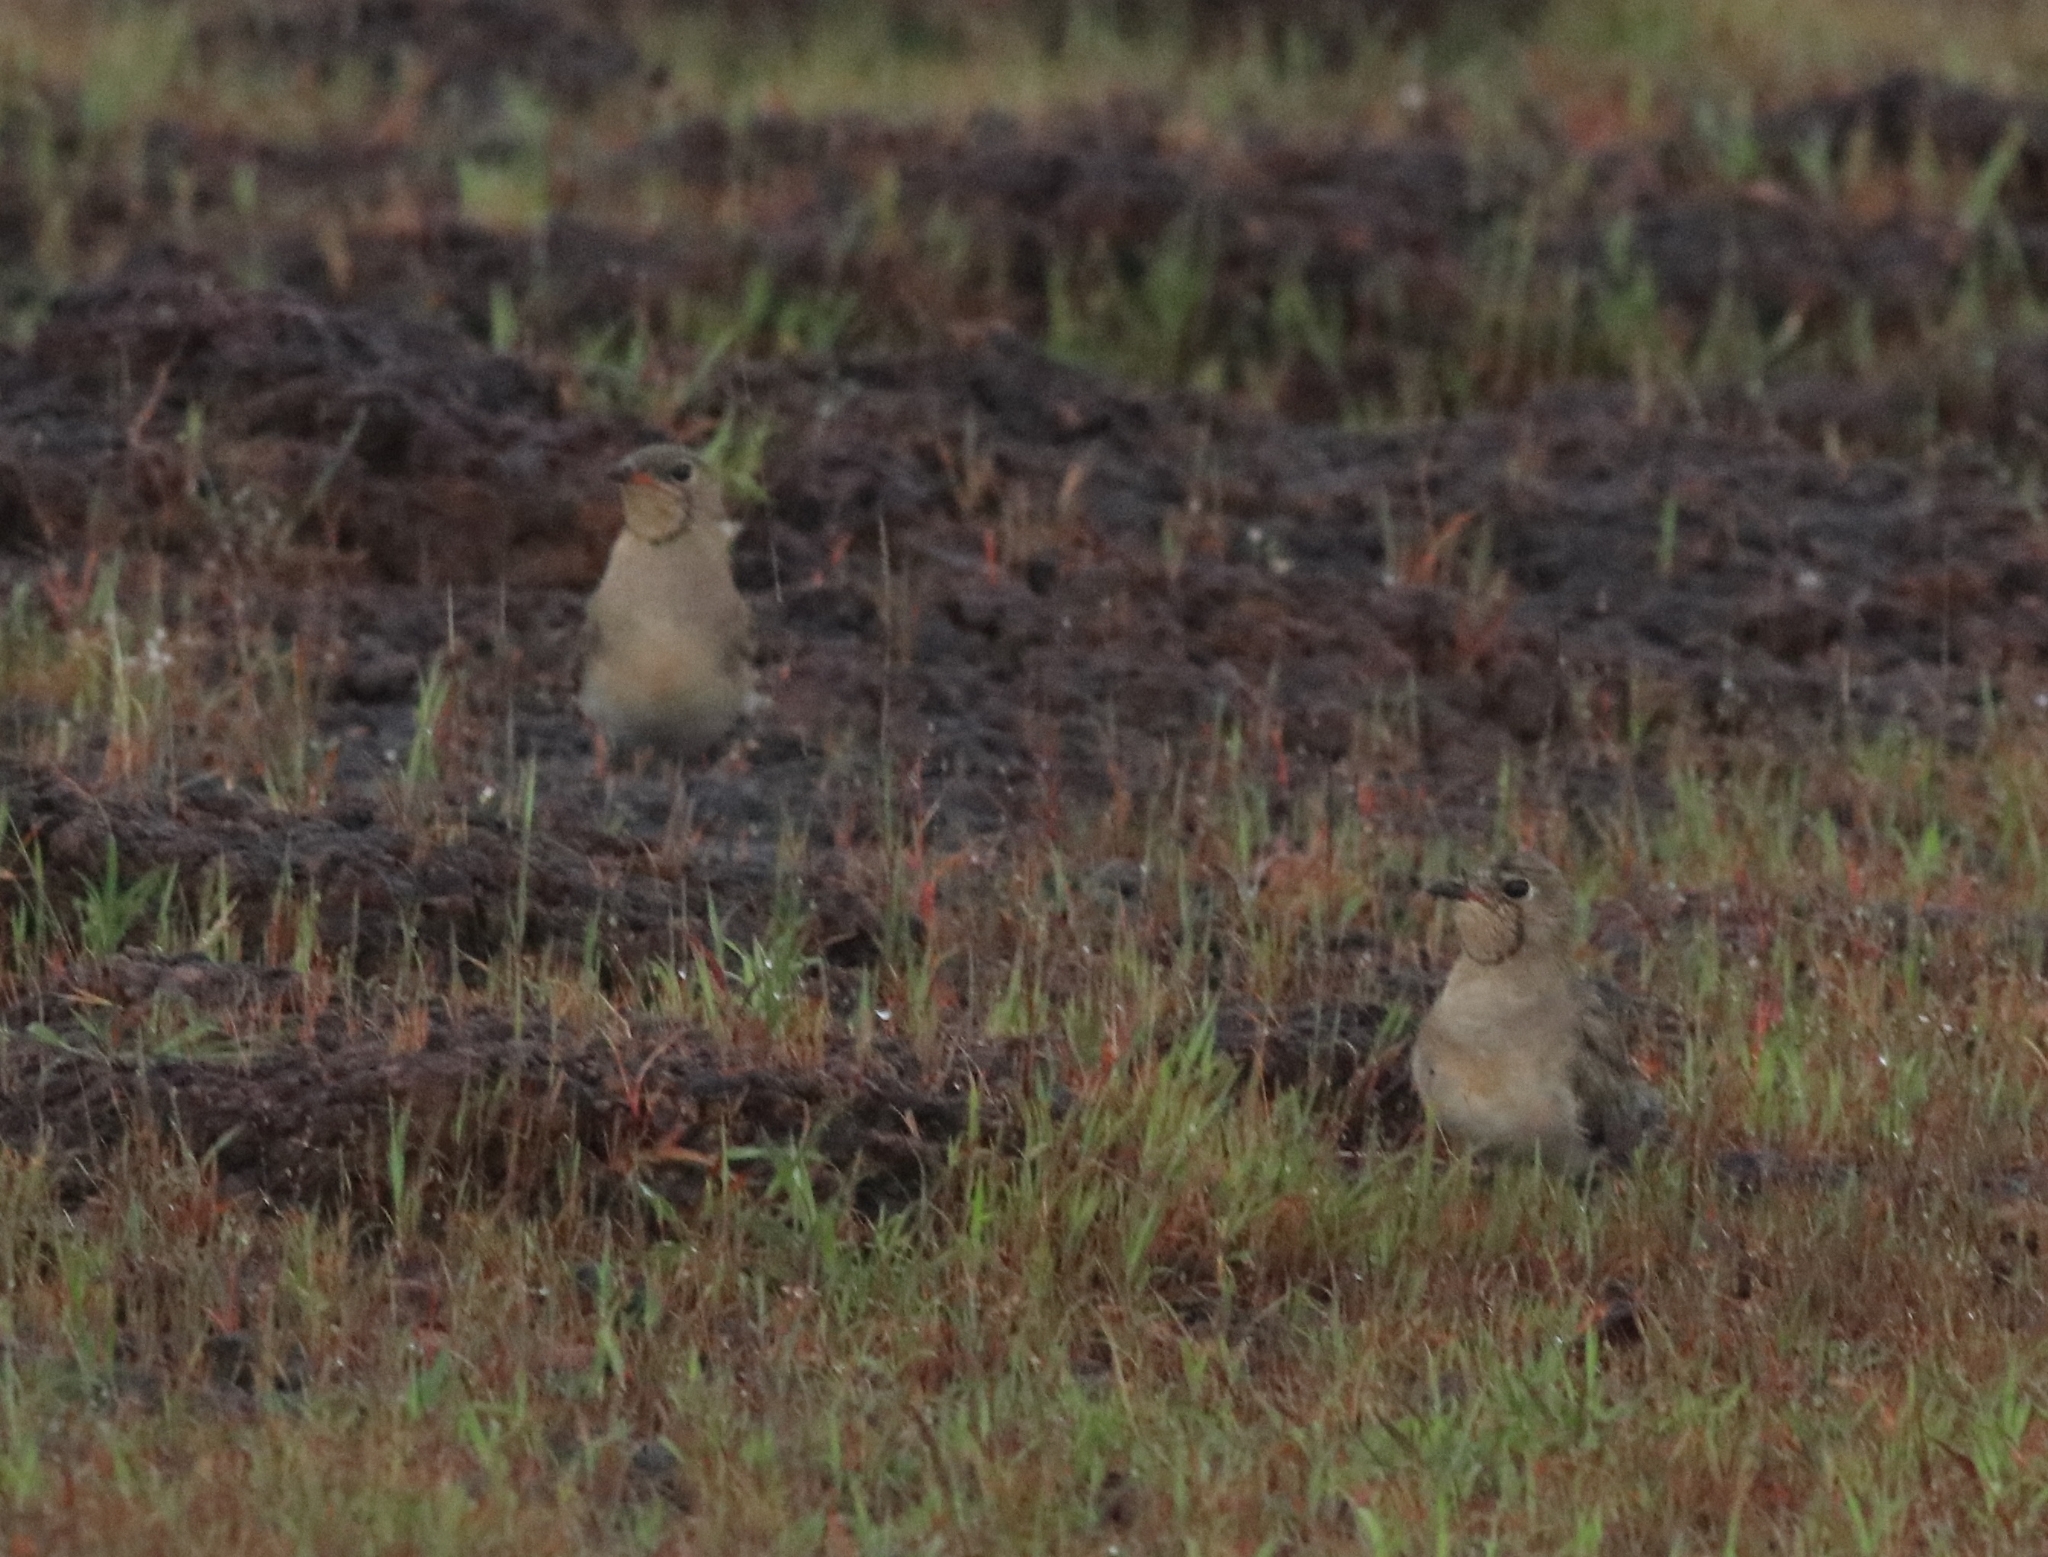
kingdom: Animalia
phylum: Chordata
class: Aves
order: Charadriiformes
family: Glareolidae
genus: Glareola
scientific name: Glareola pratincola
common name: Collared pratincole
